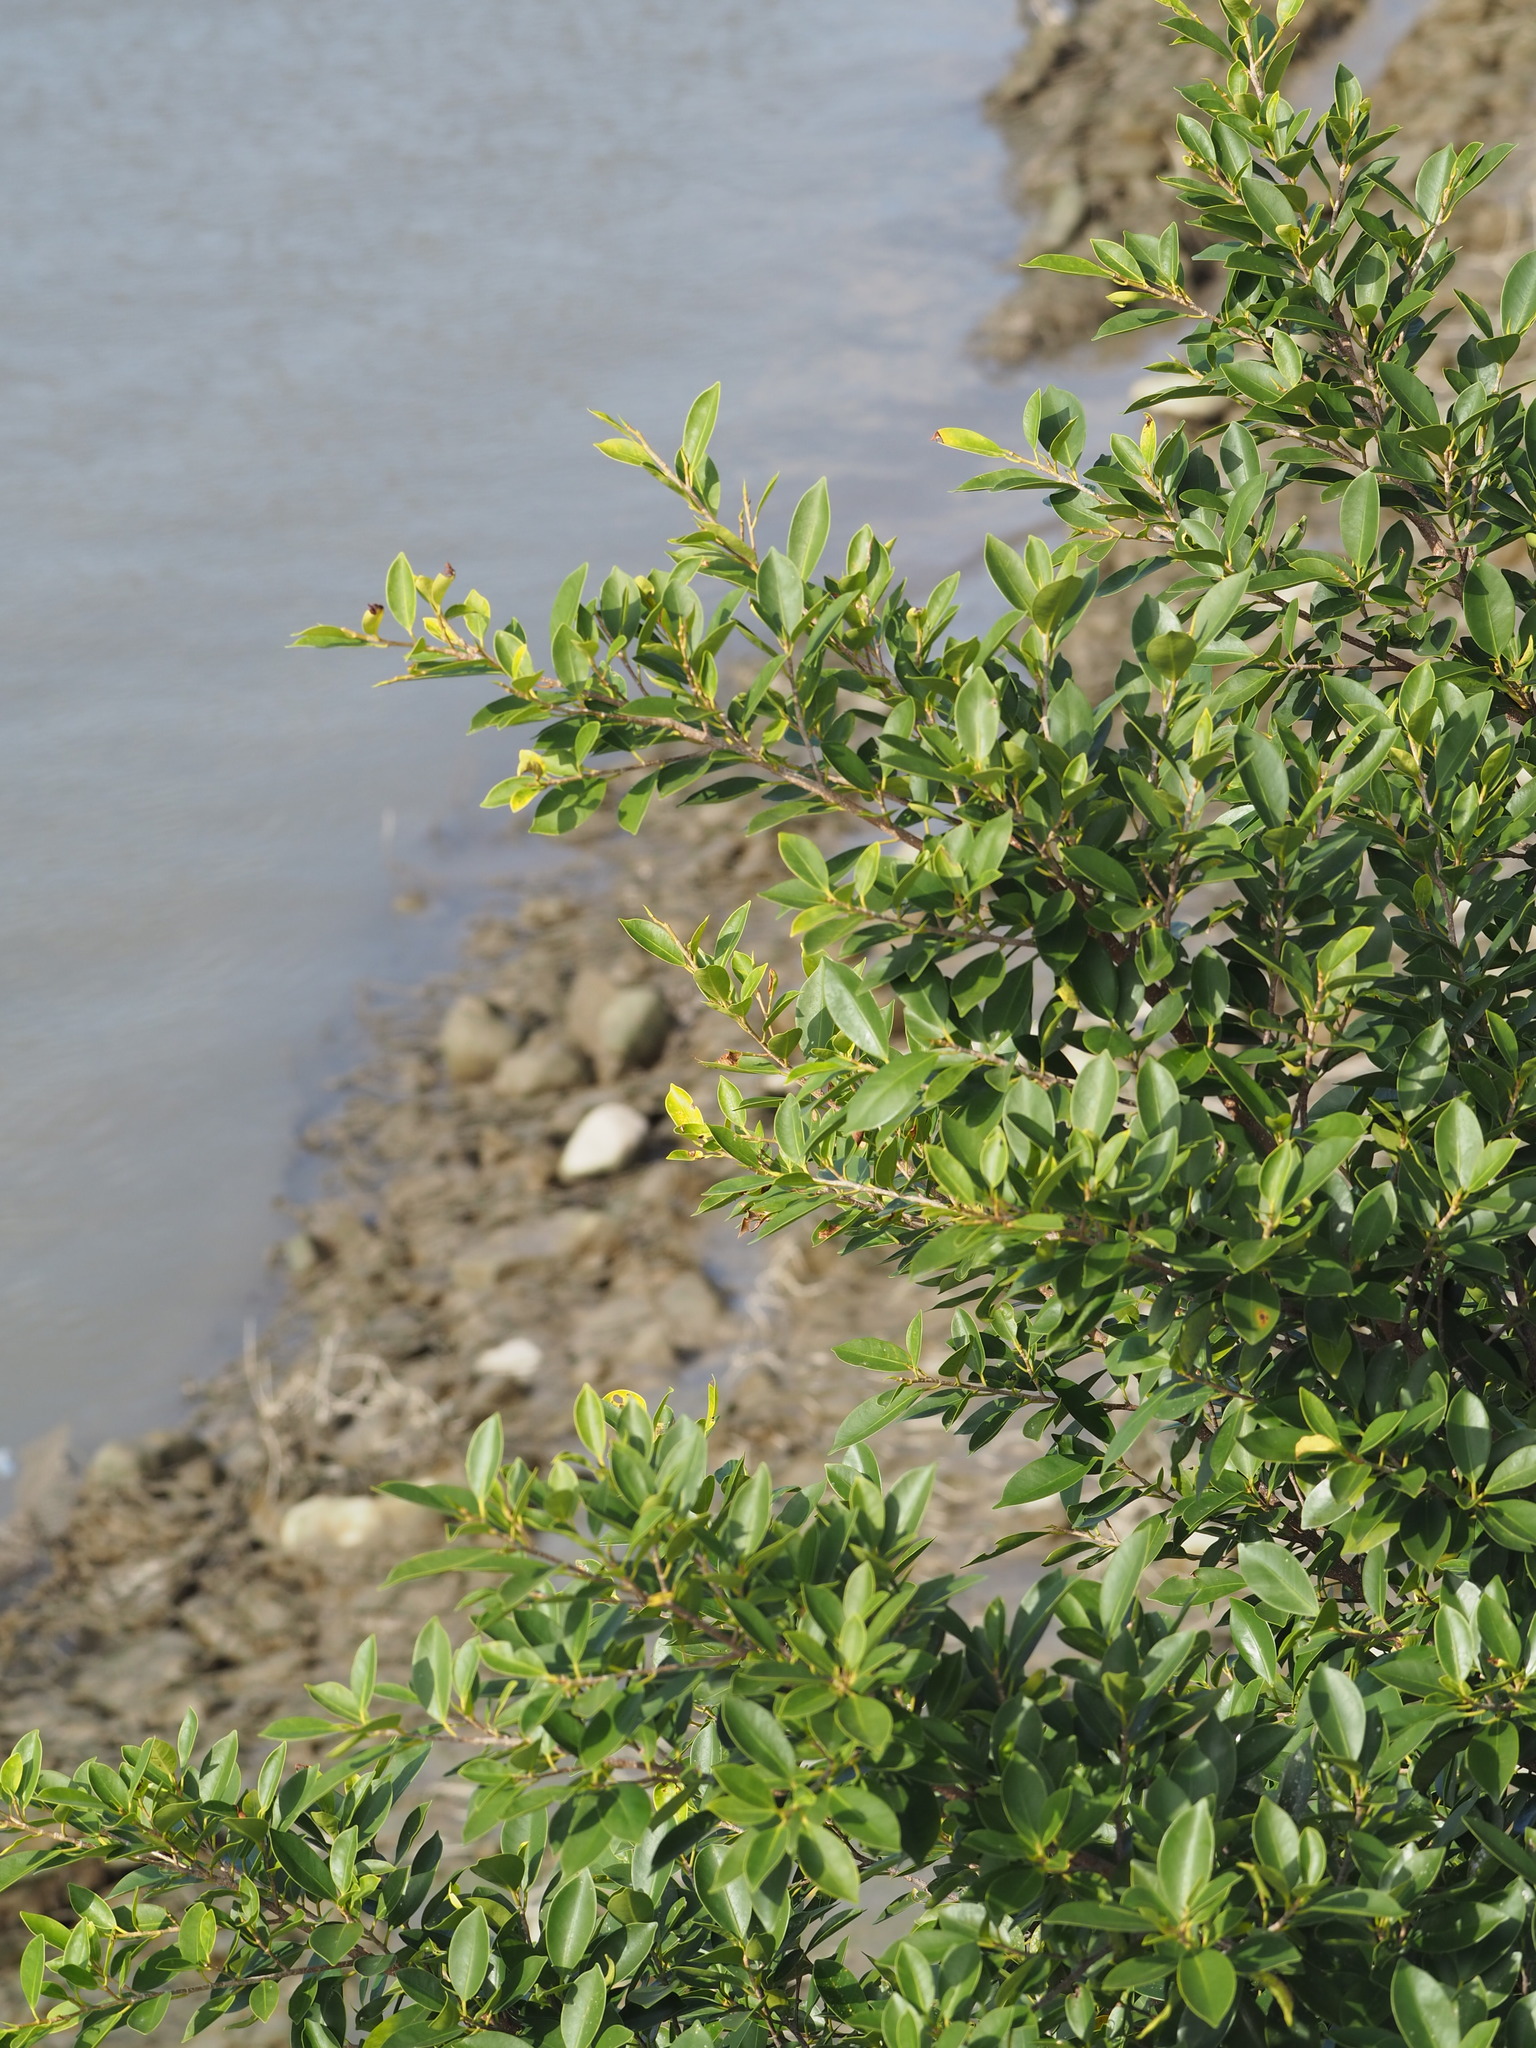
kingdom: Plantae
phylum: Tracheophyta
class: Magnoliopsida
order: Rosales
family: Moraceae
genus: Ficus
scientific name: Ficus microcarpa
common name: Chinese banyan
